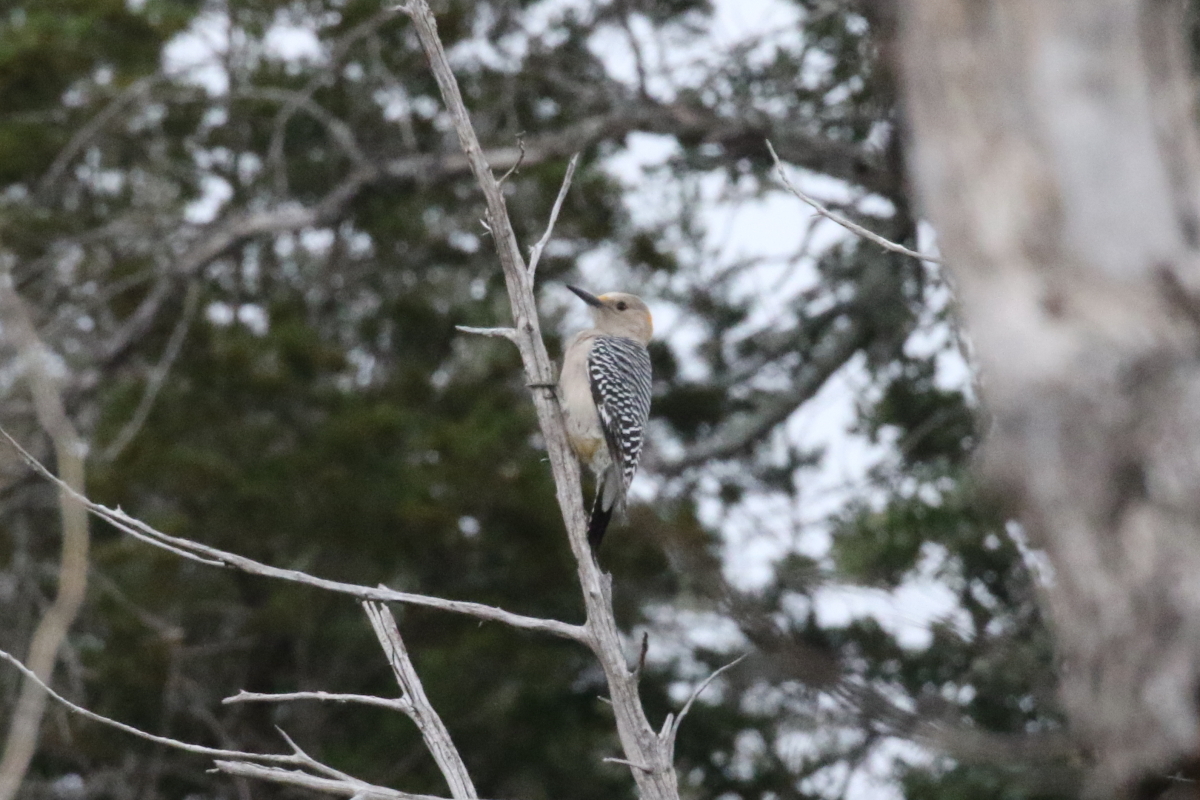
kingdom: Animalia
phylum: Chordata
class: Aves
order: Piciformes
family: Picidae
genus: Melanerpes
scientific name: Melanerpes aurifrons
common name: Golden-fronted woodpecker
